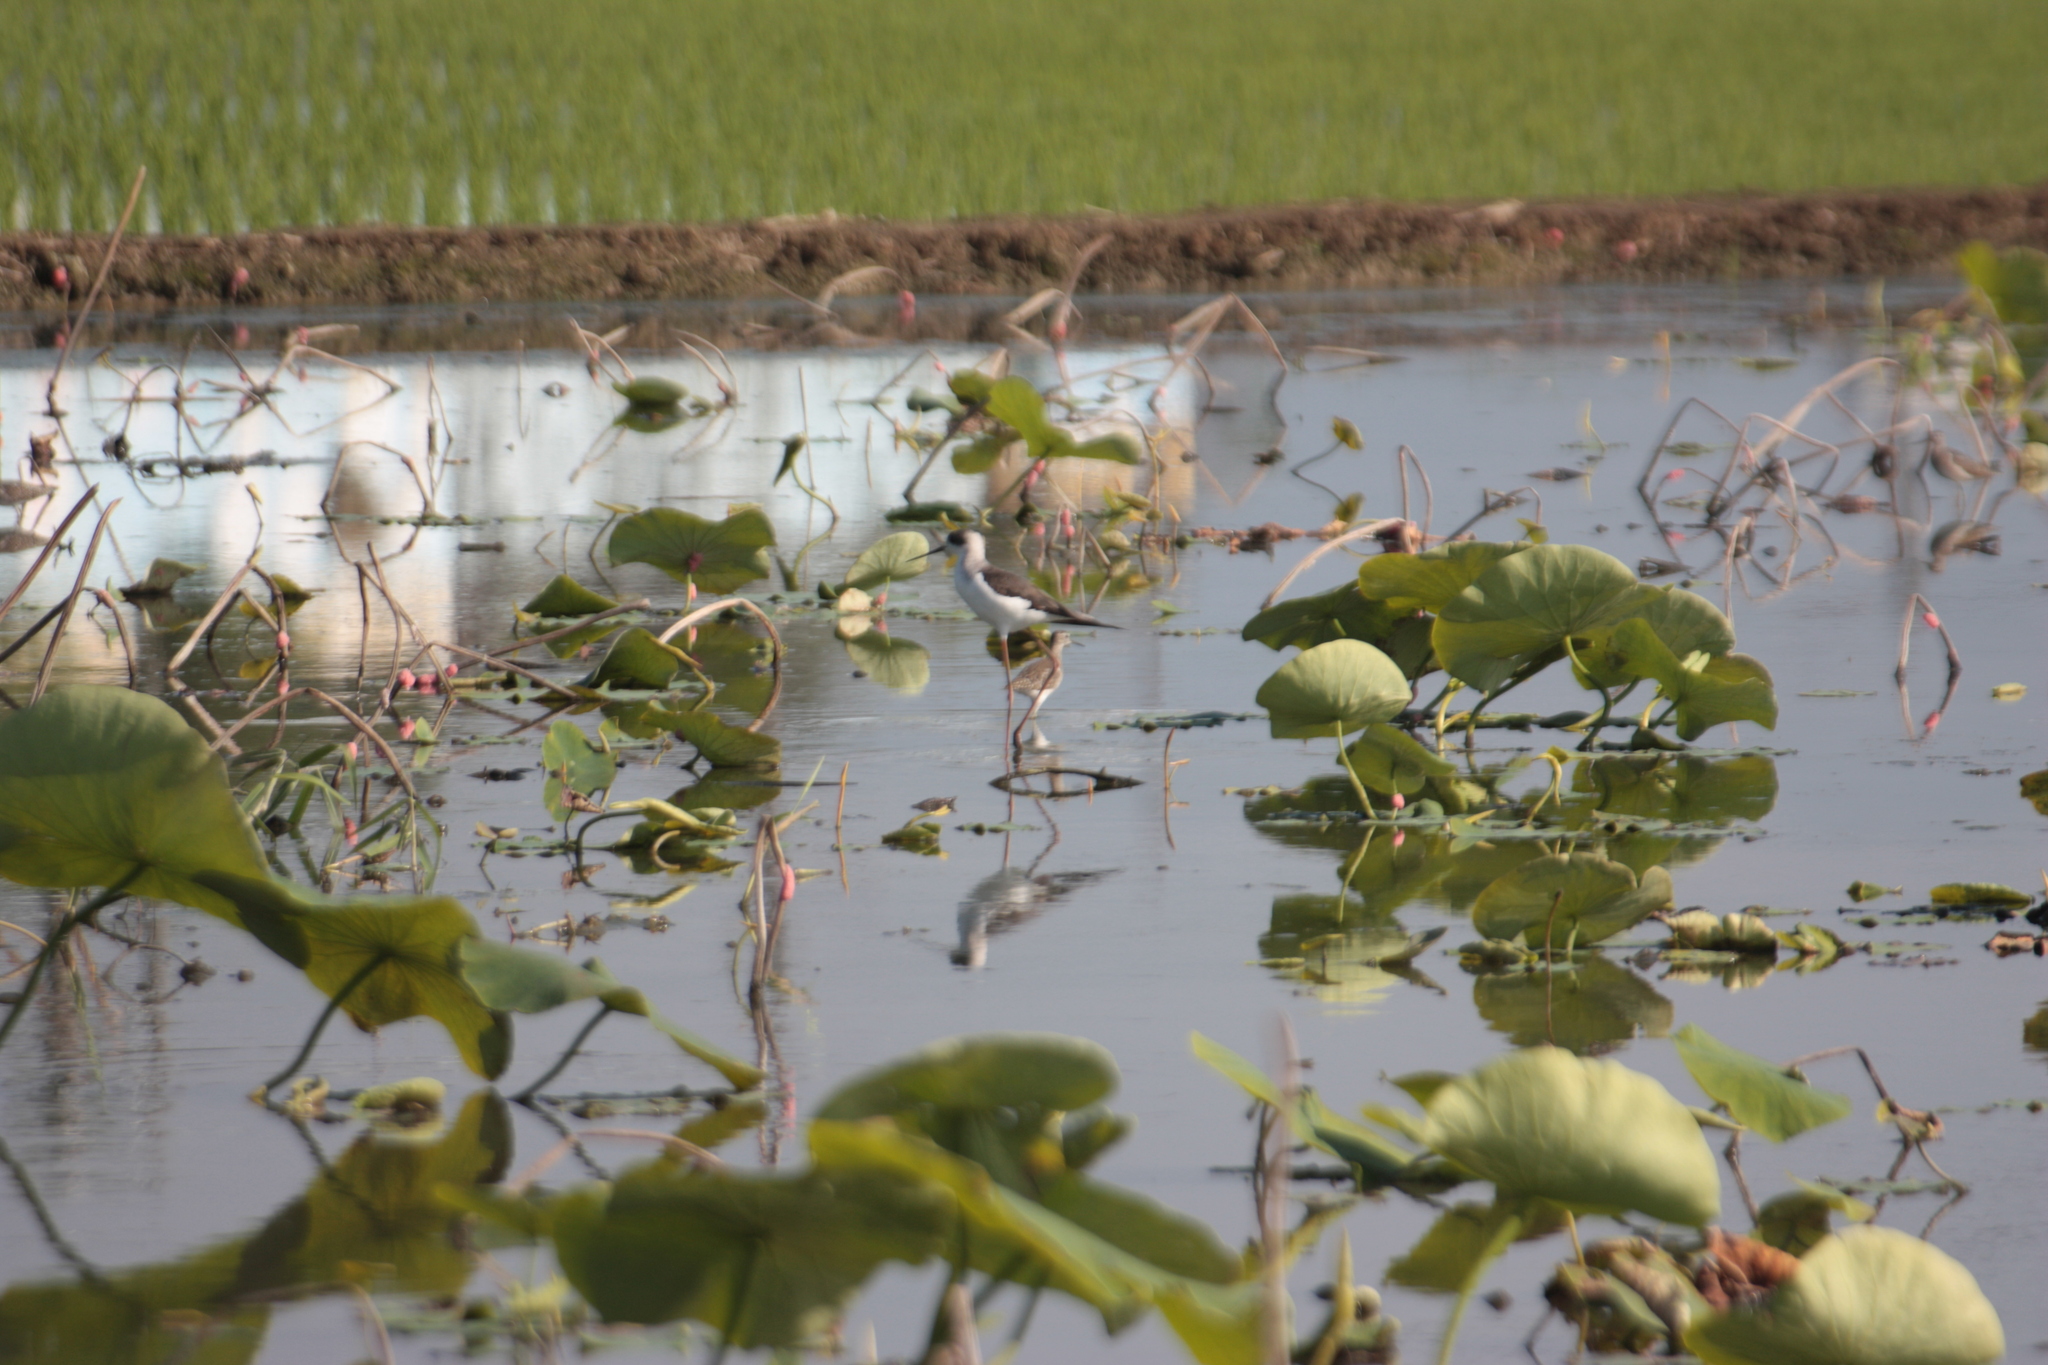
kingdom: Animalia
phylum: Chordata
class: Aves
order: Charadriiformes
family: Recurvirostridae
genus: Himantopus
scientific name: Himantopus himantopus
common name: Black-winged stilt
